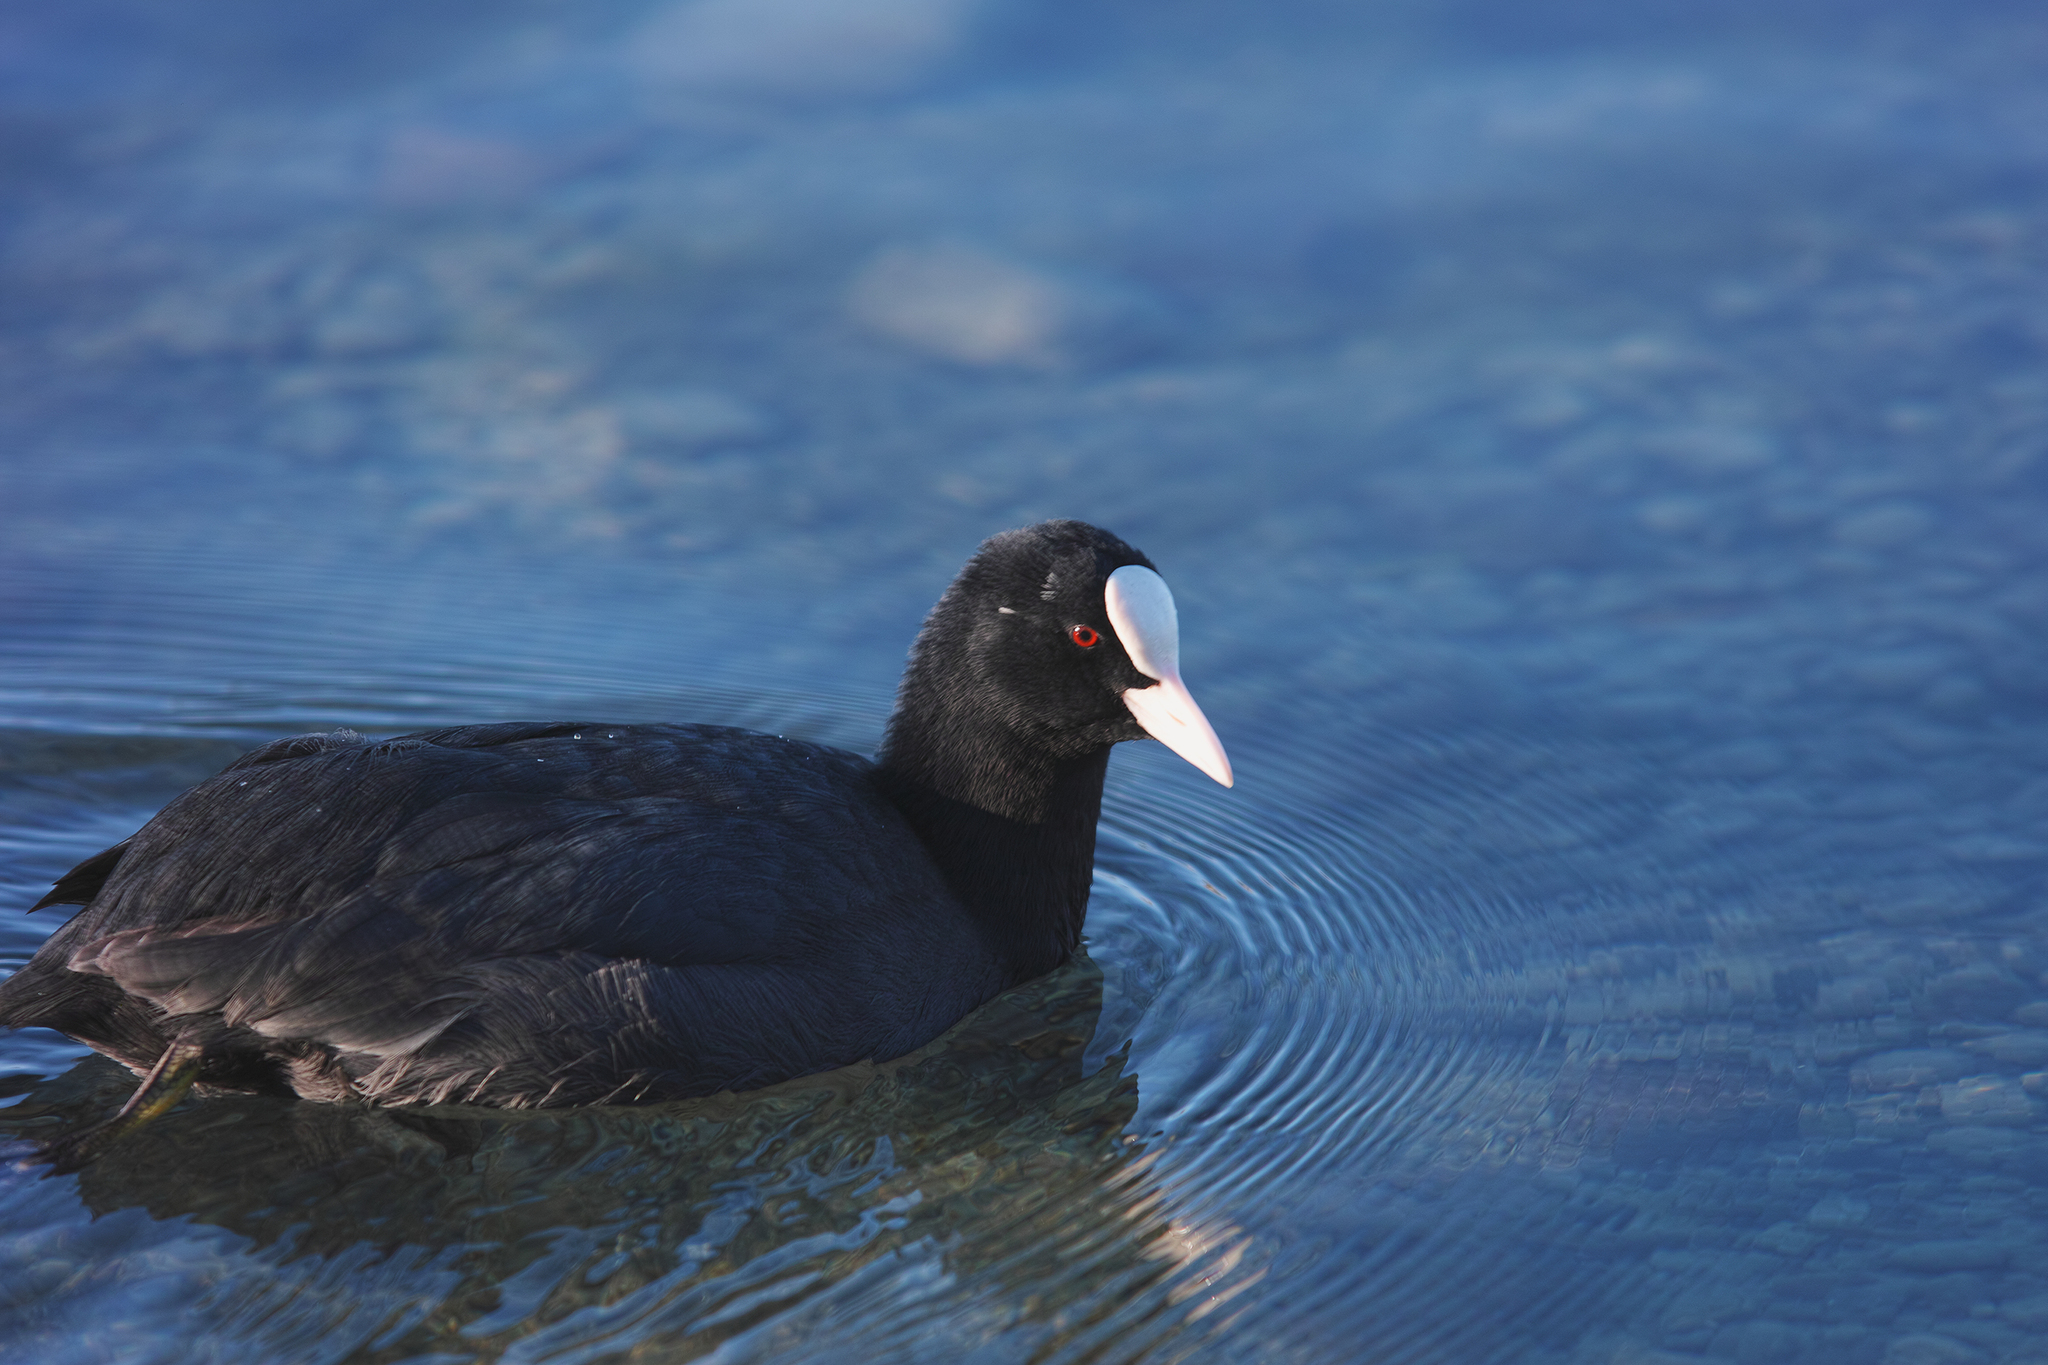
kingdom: Animalia
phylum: Chordata
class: Aves
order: Gruiformes
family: Rallidae
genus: Fulica
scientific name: Fulica atra
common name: Eurasian coot
